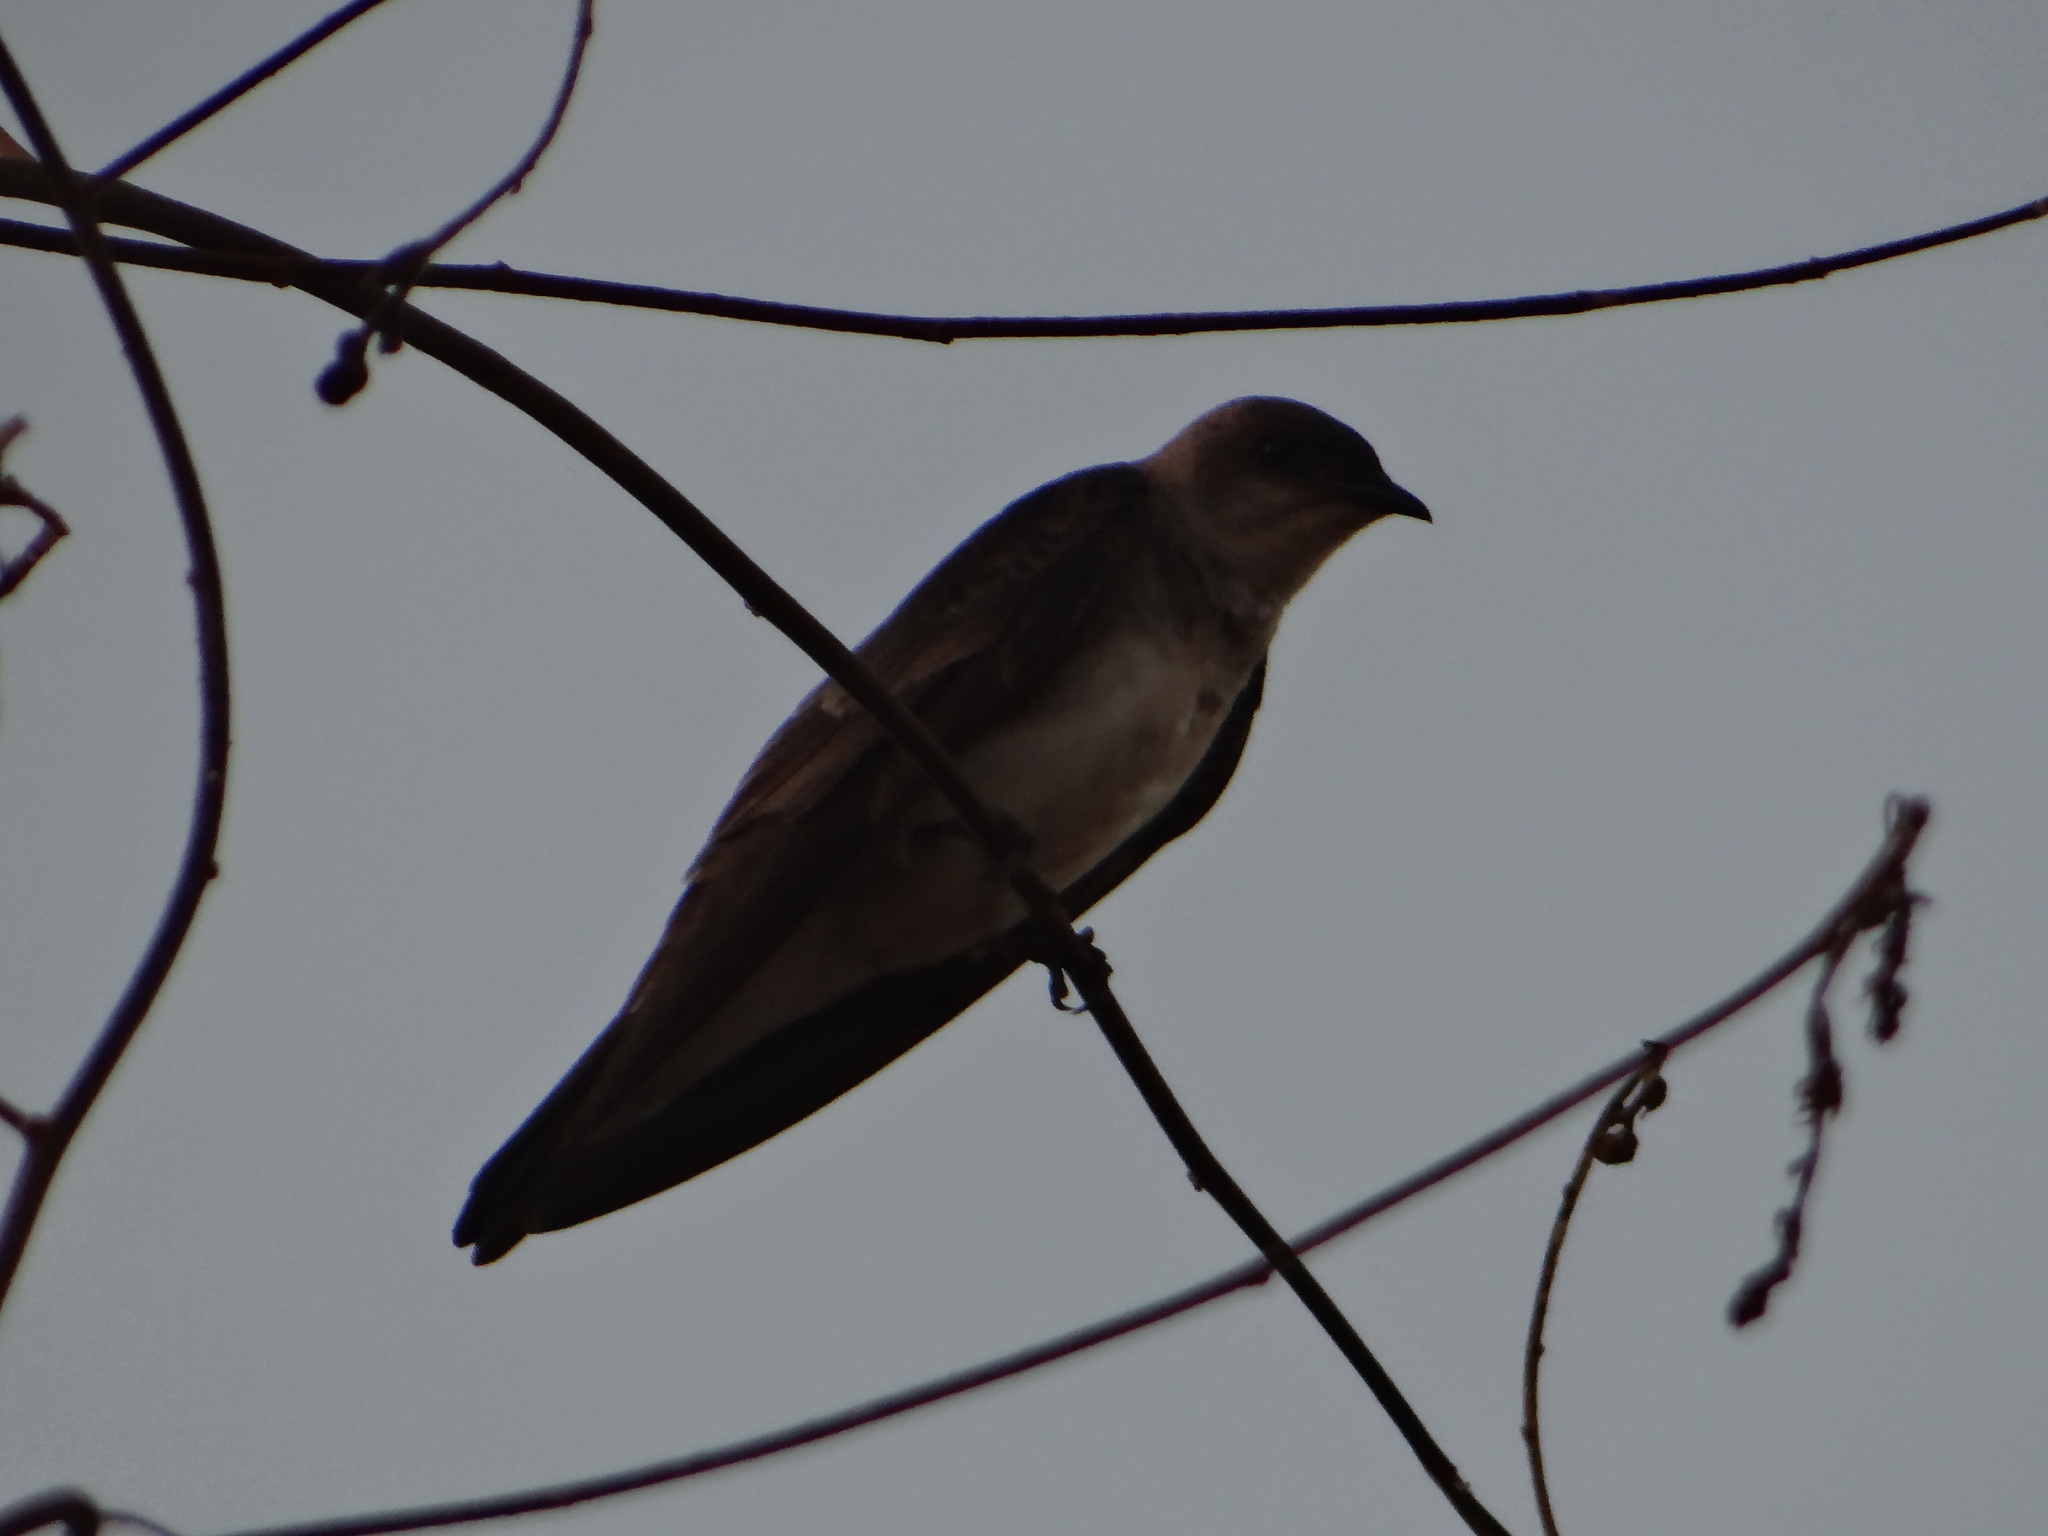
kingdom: Animalia
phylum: Chordata
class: Aves
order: Passeriformes
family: Hirundinidae
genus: Progne
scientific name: Progne tapera
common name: Brown-chested martin
